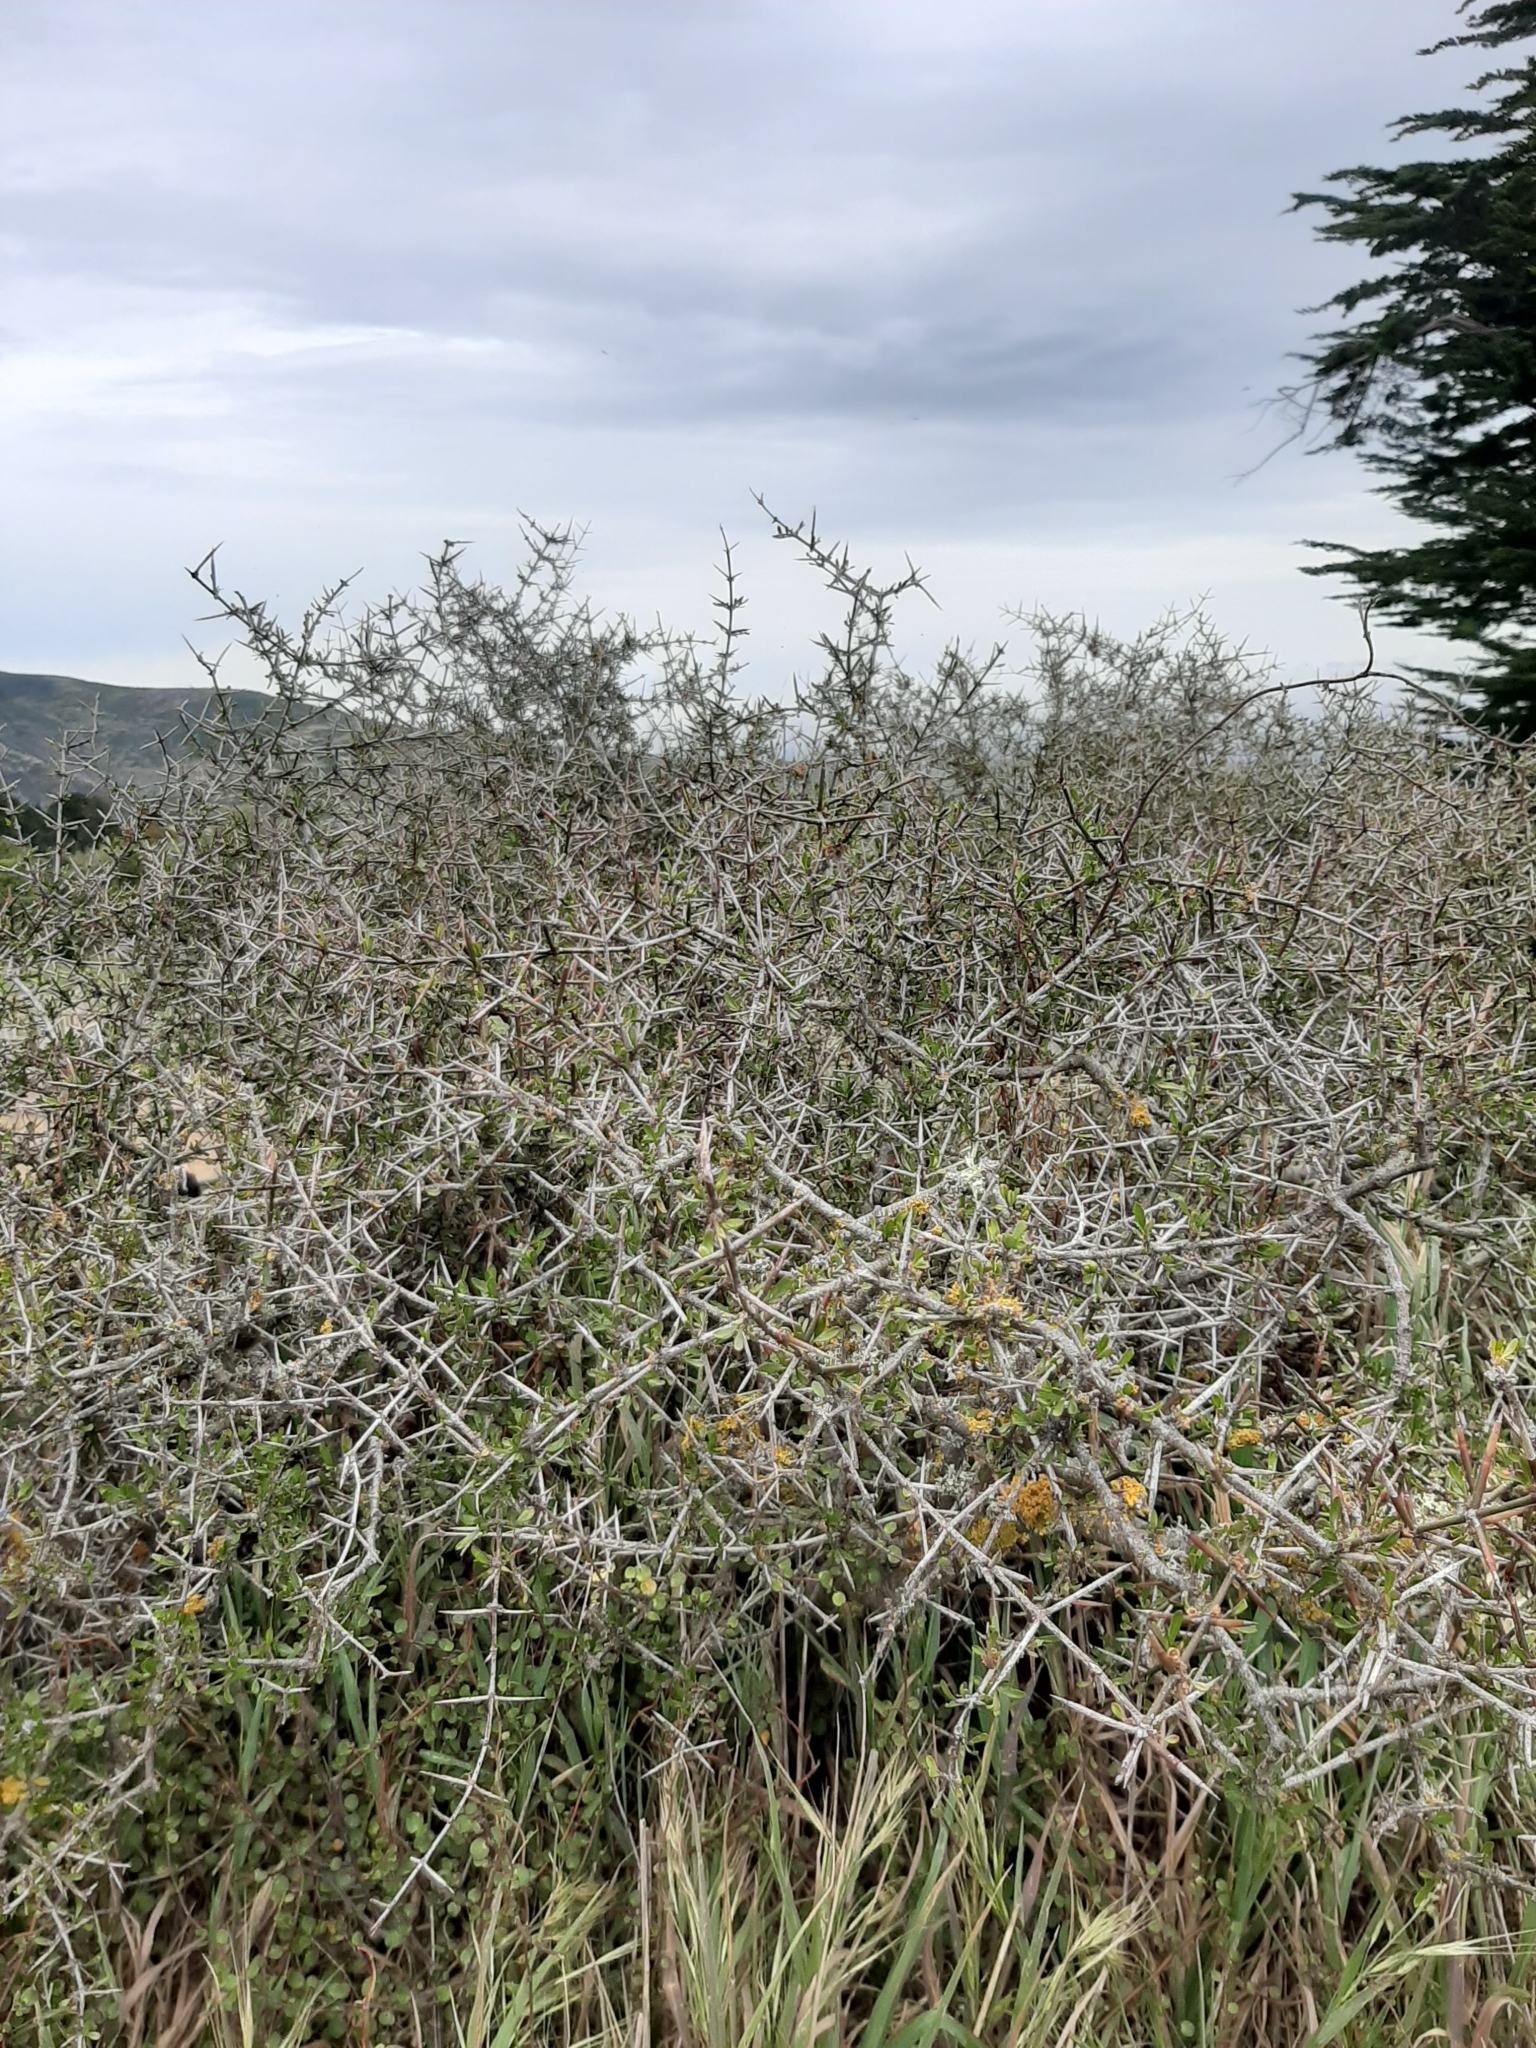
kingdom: Plantae
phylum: Tracheophyta
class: Magnoliopsida
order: Rosales
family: Rhamnaceae
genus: Discaria
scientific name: Discaria toumatou
